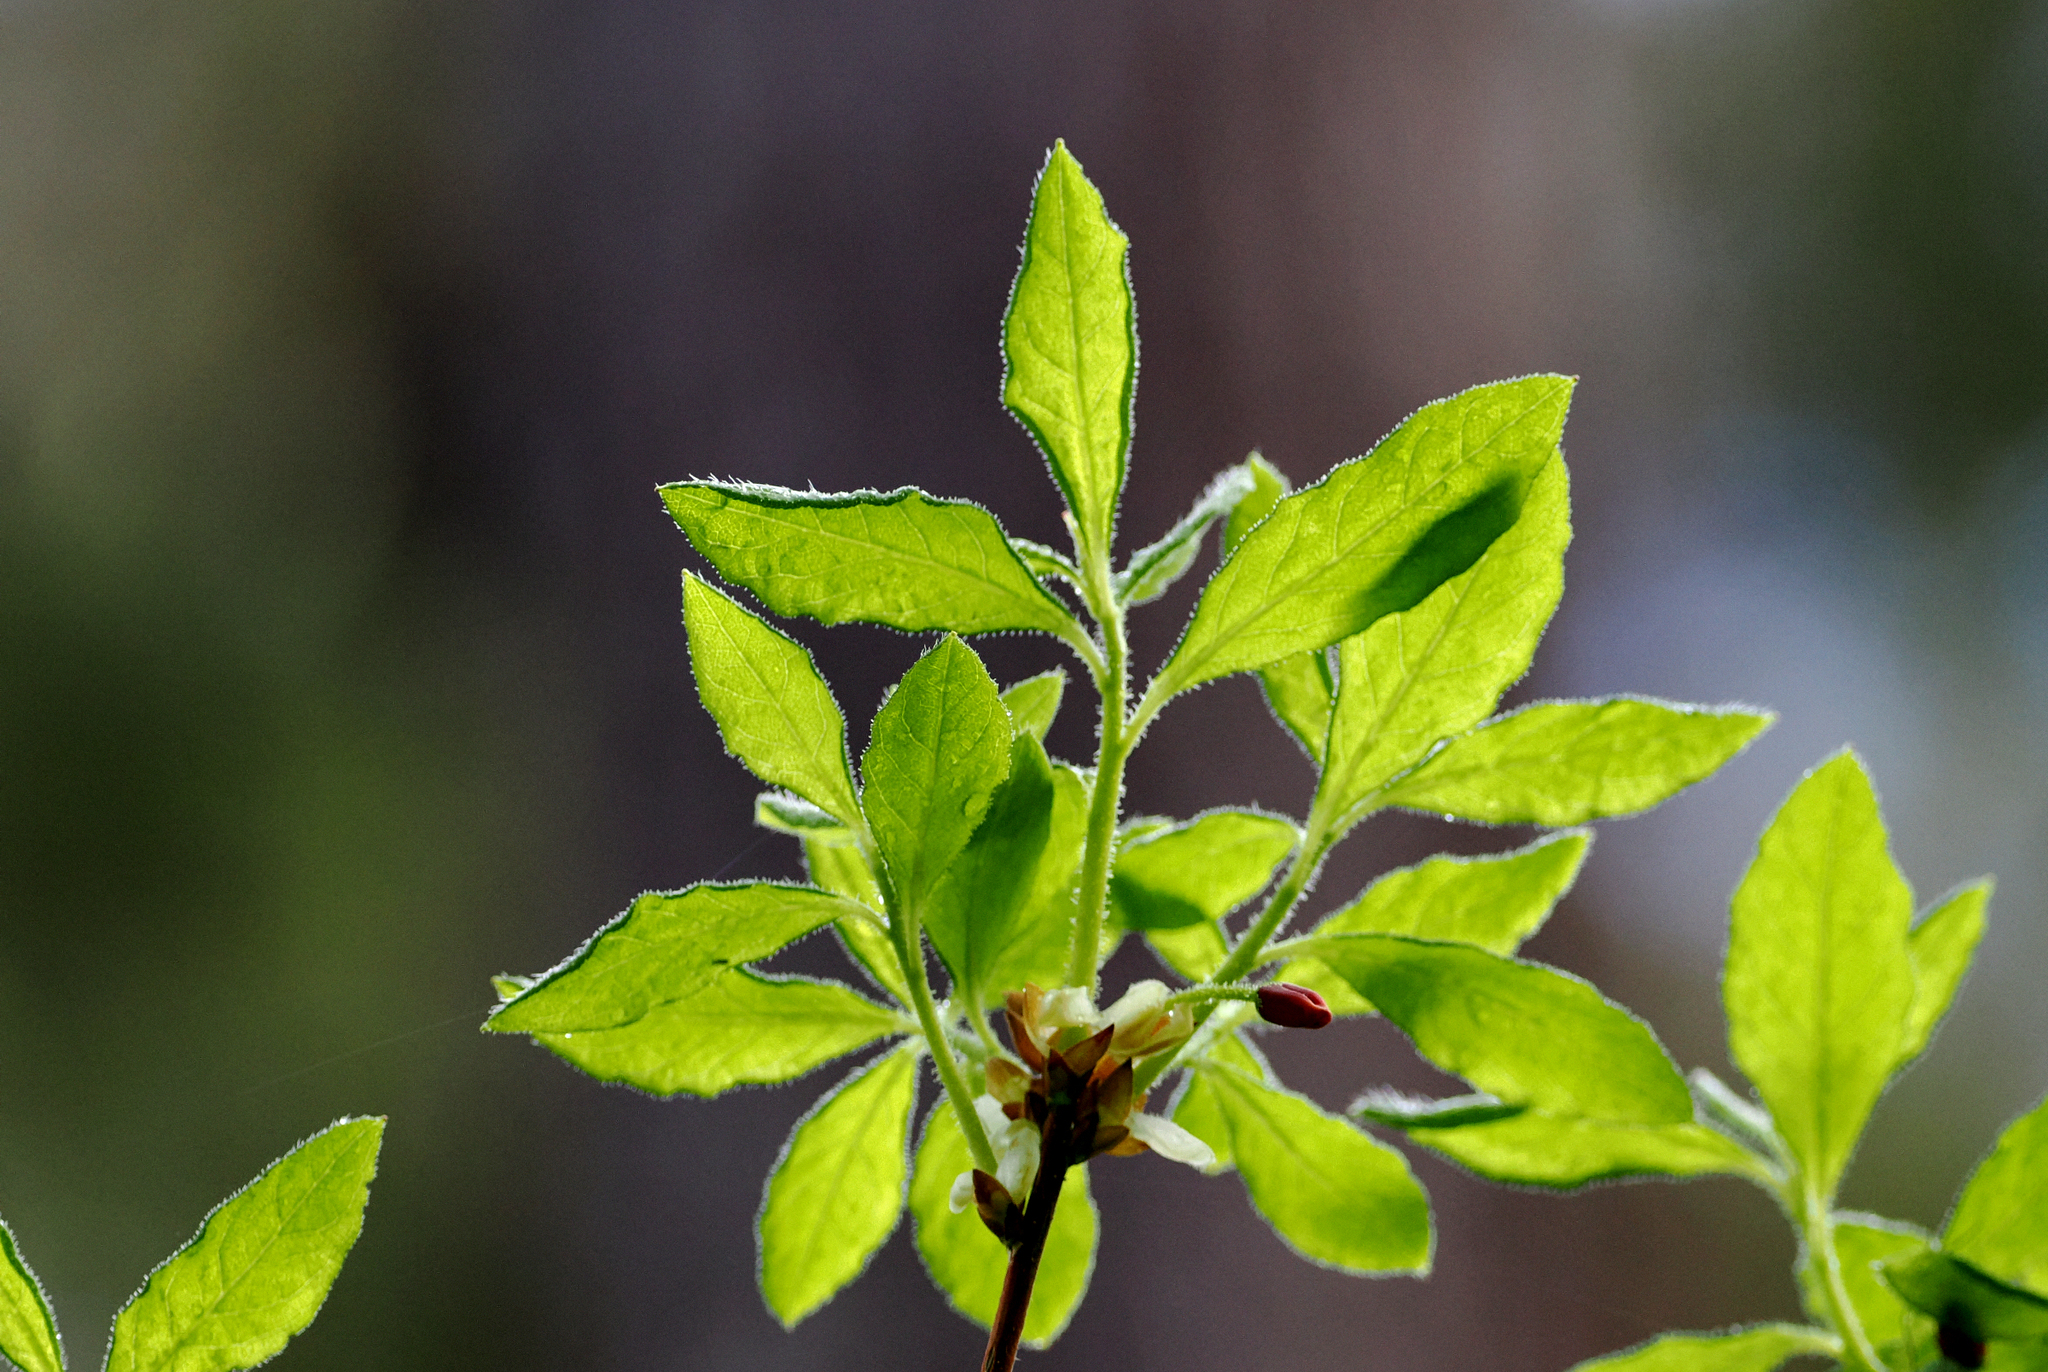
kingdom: Plantae
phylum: Tracheophyta
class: Magnoliopsida
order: Ericales
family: Ericaceae
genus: Rhododendron
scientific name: Rhododendron menziesii
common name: Pacific menziesia
